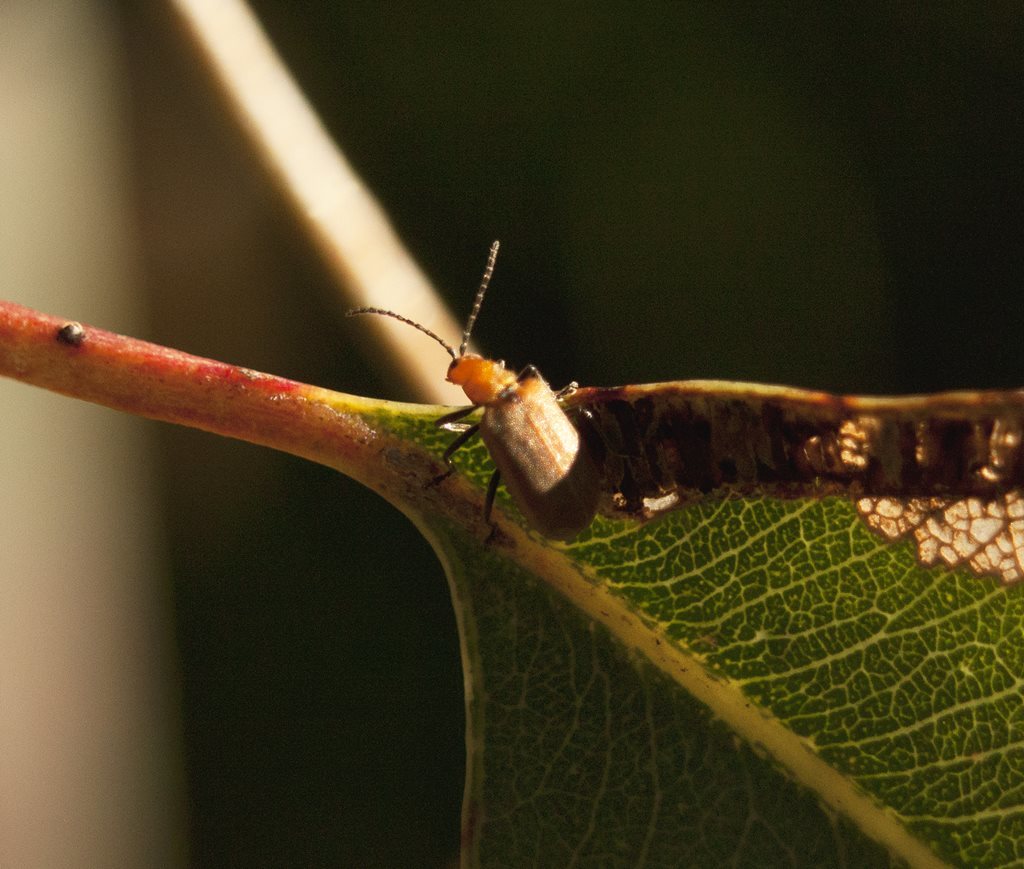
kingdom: Animalia
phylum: Arthropoda
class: Insecta
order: Coleoptera
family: Chrysomelidae
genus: Galerucella
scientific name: Galerucella
